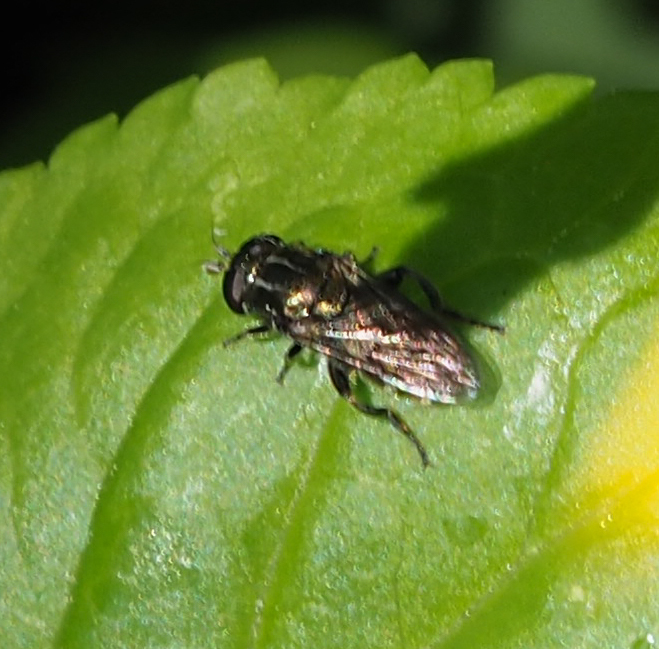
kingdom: Animalia
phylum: Arthropoda
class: Insecta
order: Diptera
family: Syrphidae
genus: Eumerus
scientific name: Eumerus
